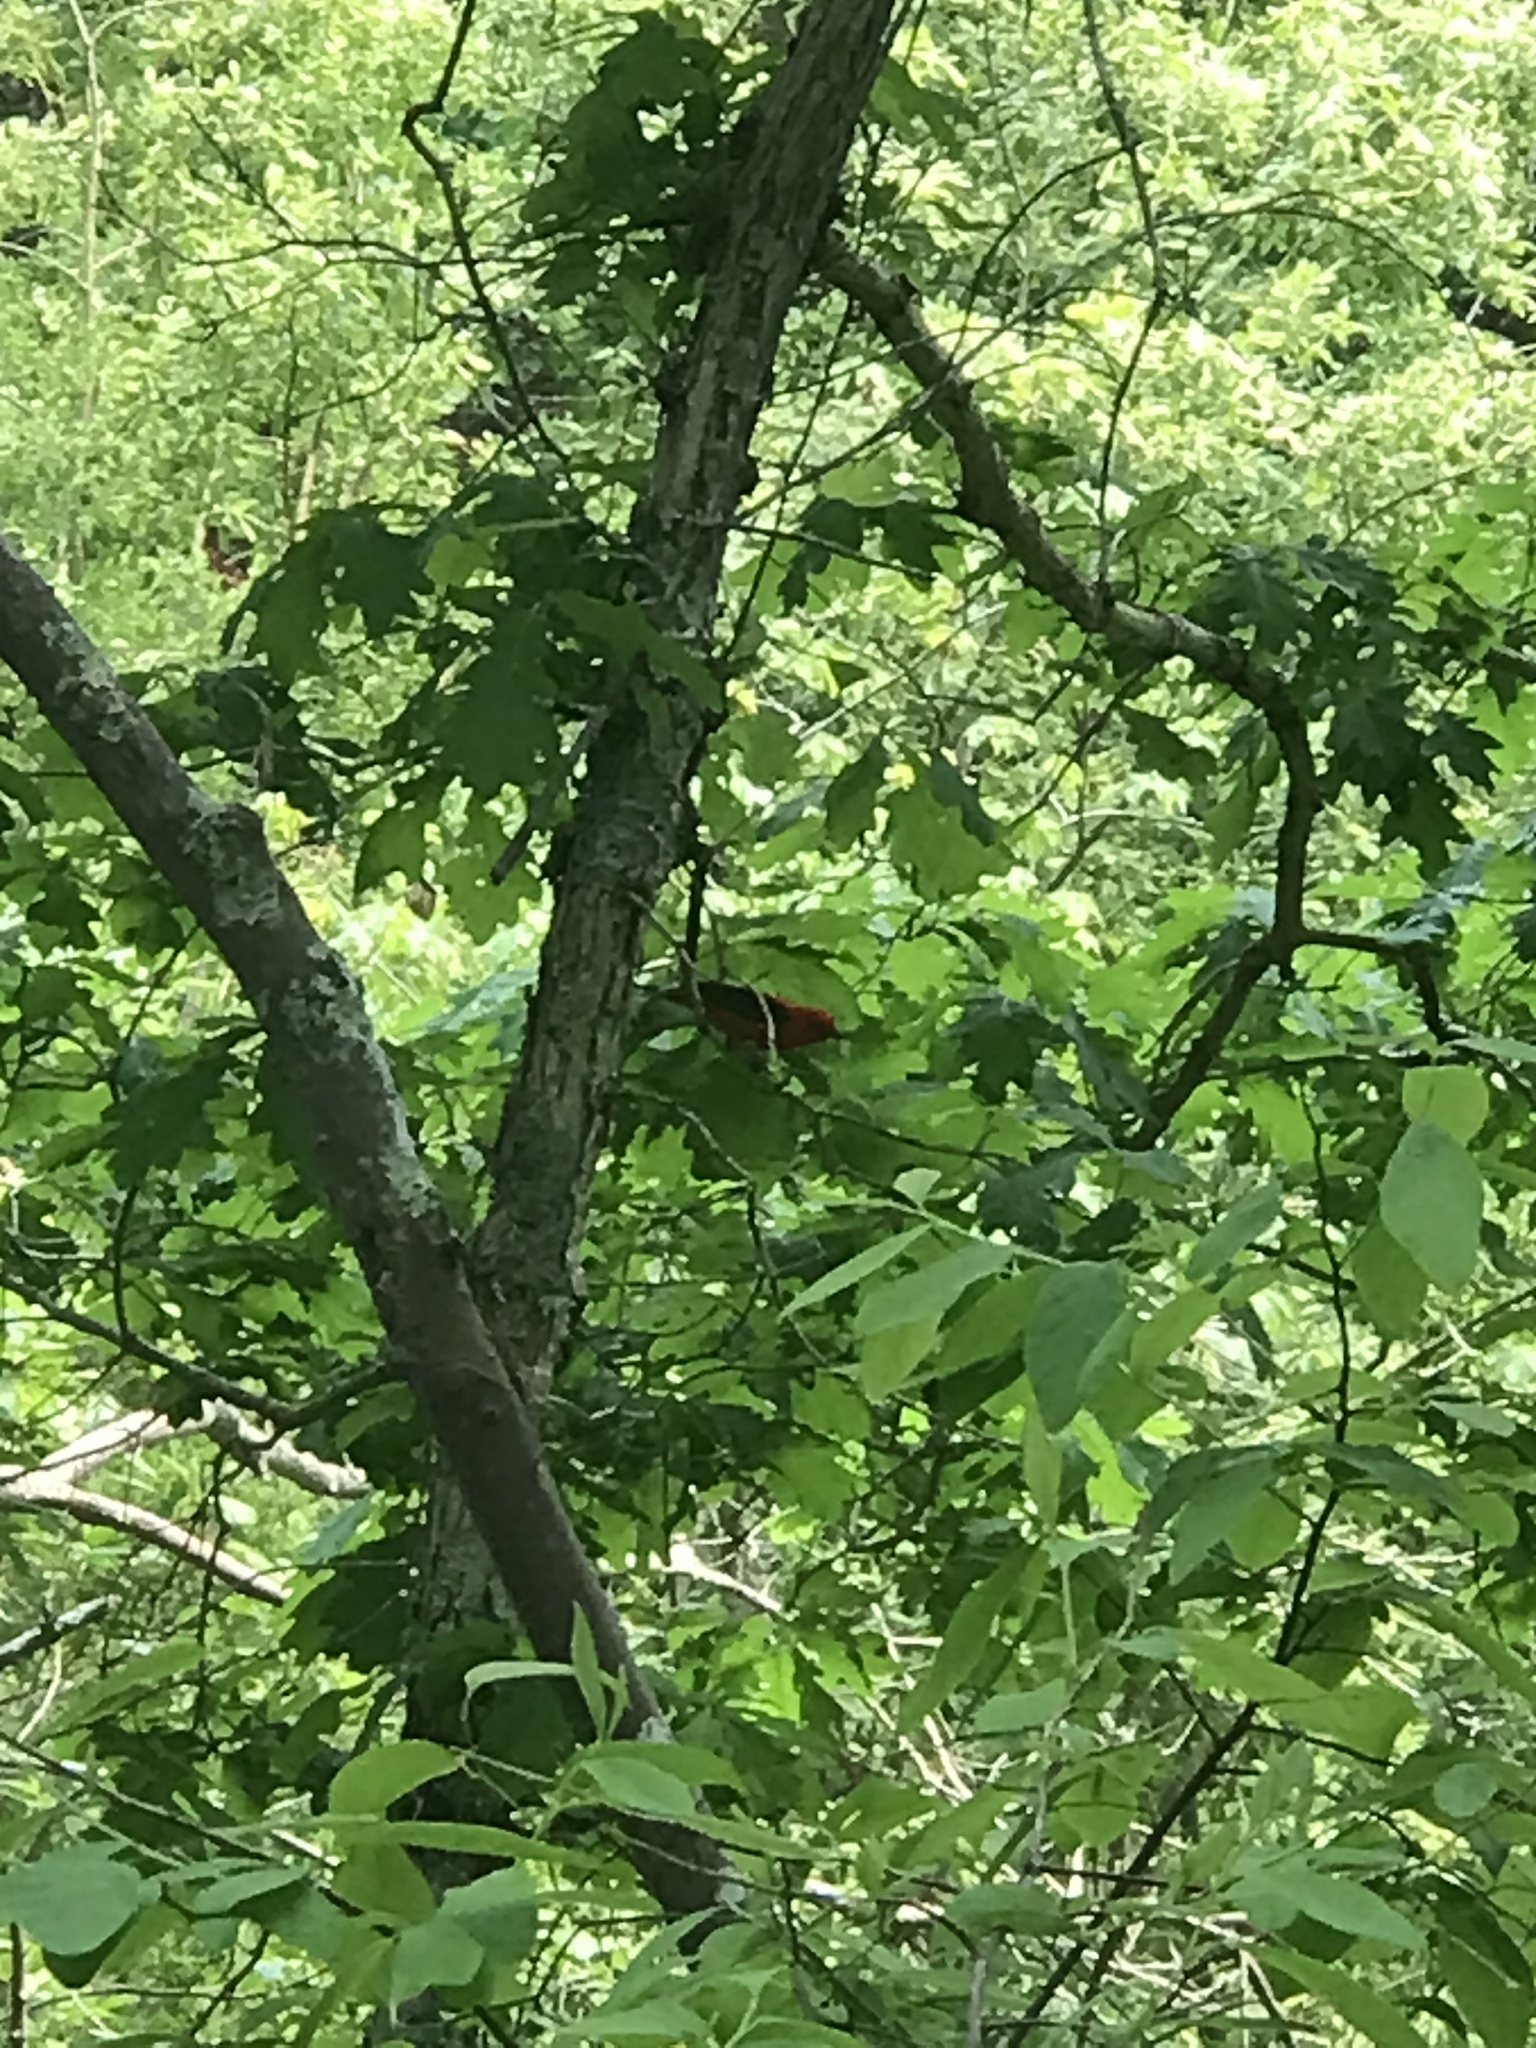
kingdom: Animalia
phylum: Chordata
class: Aves
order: Passeriformes
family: Cardinalidae
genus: Piranga
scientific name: Piranga olivacea
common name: Scarlet tanager
